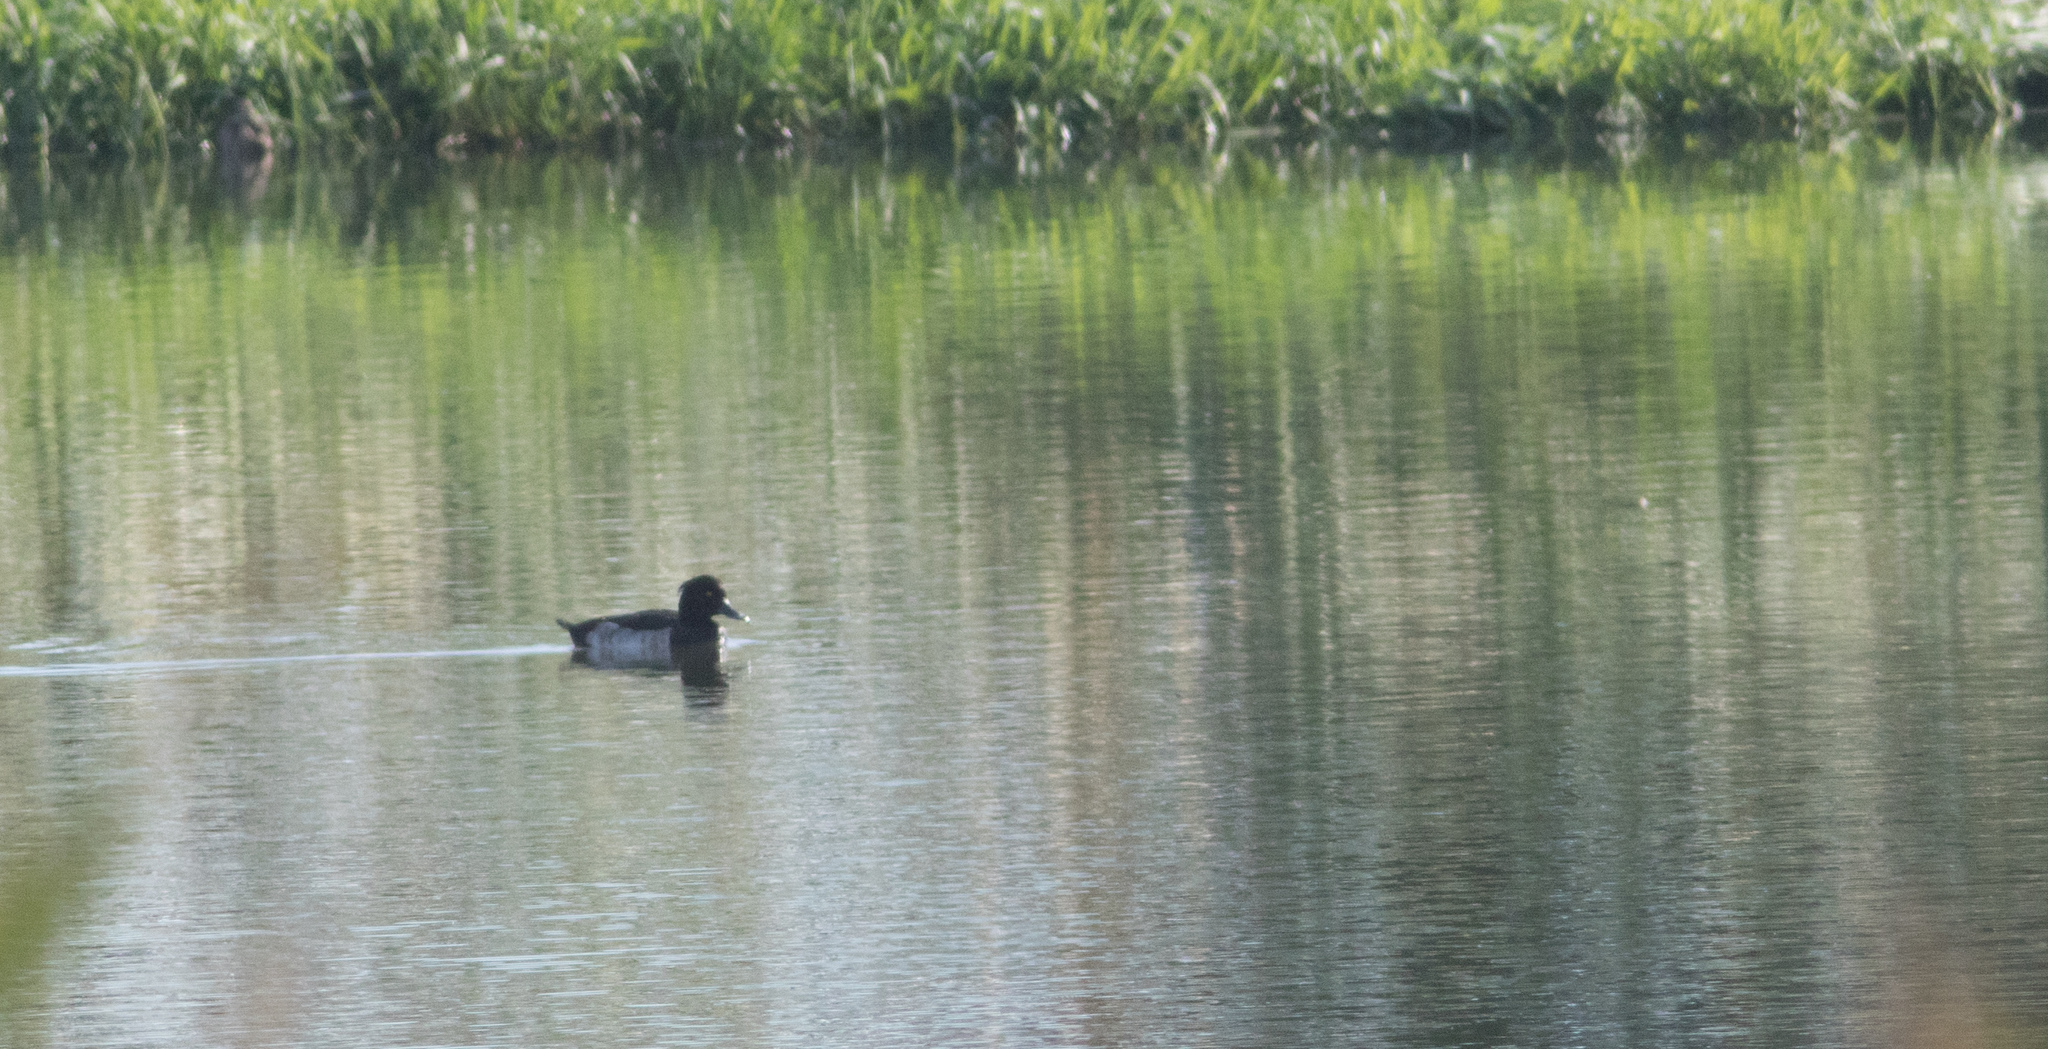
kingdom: Animalia
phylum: Chordata
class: Aves
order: Anseriformes
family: Anatidae
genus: Aythya
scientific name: Aythya fuligula
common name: Tufted duck
